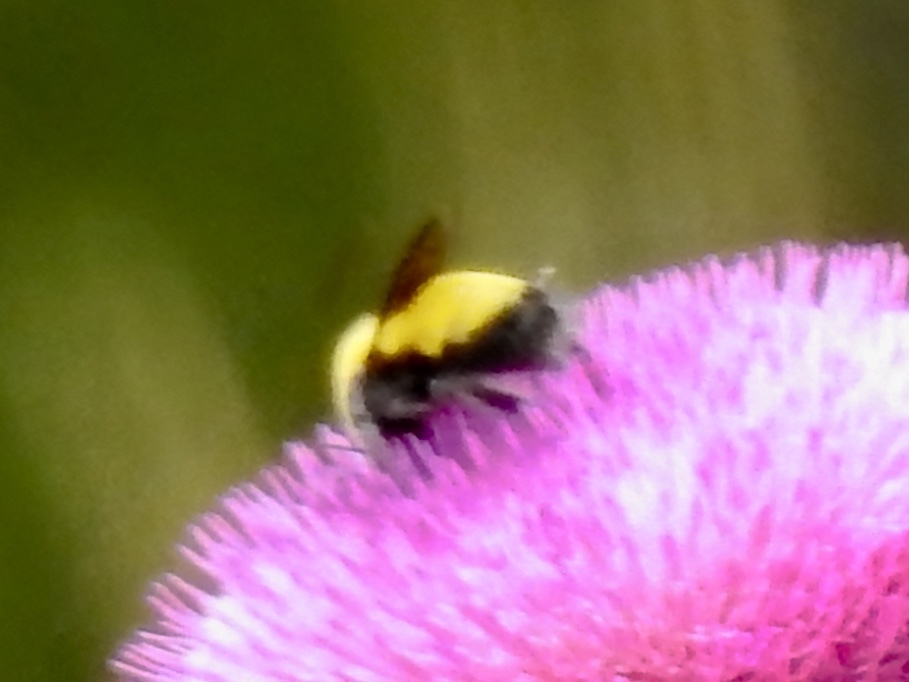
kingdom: Animalia
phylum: Arthropoda
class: Insecta
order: Hymenoptera
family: Apidae
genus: Bombus
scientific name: Bombus morrisoni
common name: Morrison bumble bee
